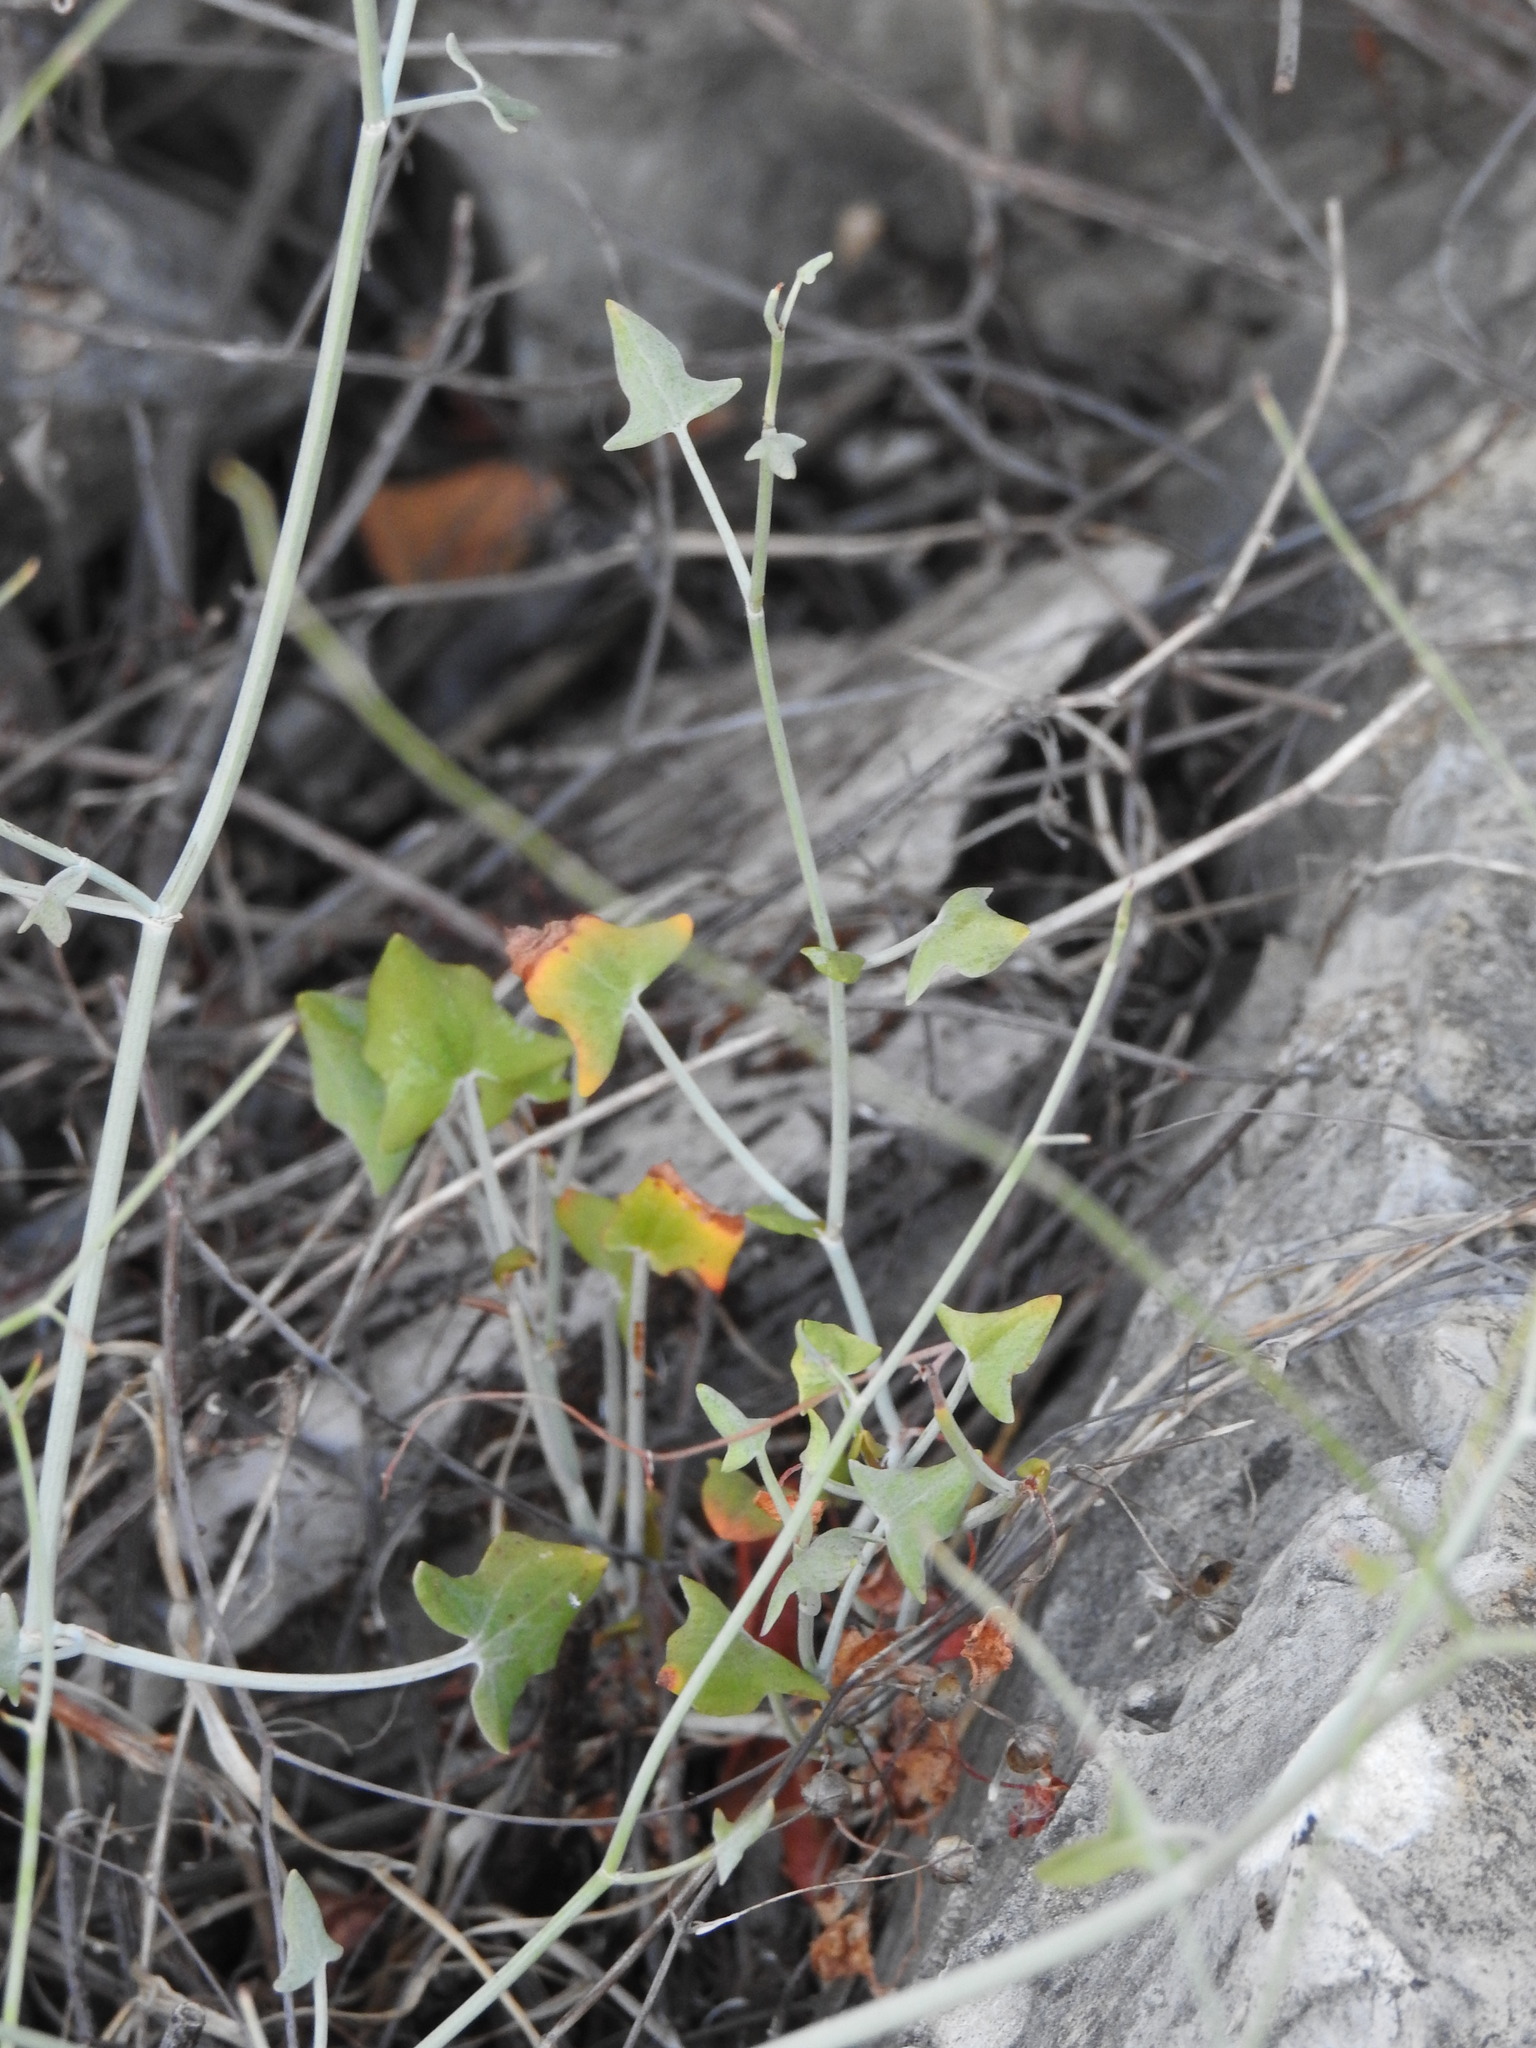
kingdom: Plantae
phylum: Tracheophyta
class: Magnoliopsida
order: Caryophyllales
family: Polygonaceae
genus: Rumex
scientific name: Rumex induratus
